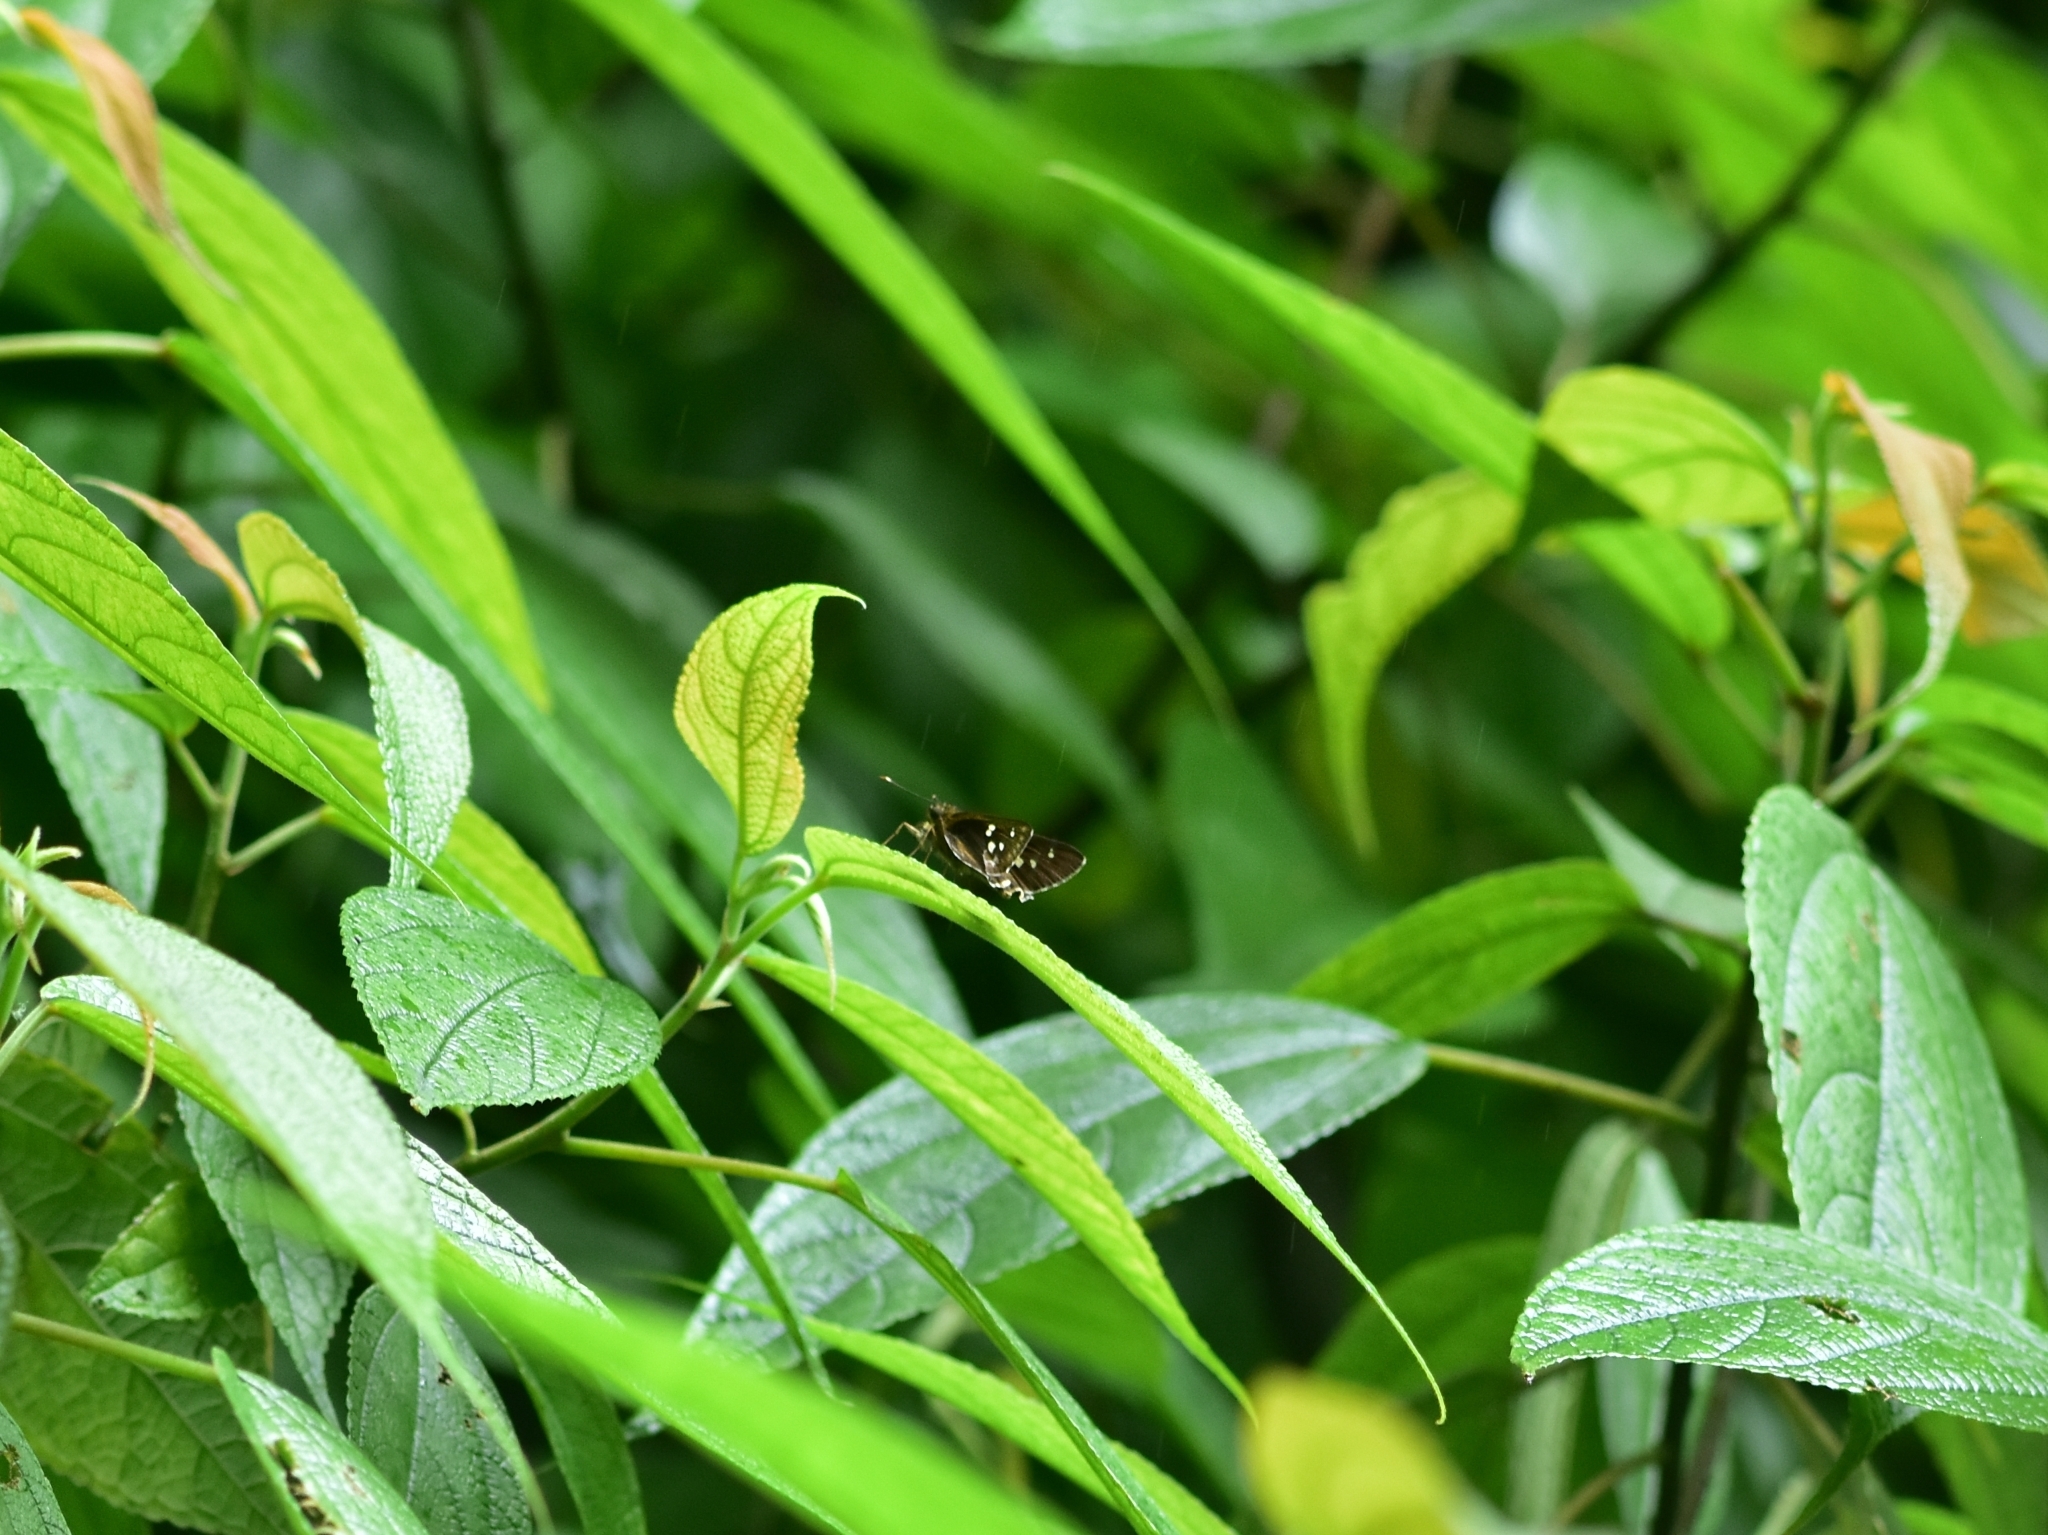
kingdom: Animalia
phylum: Arthropoda
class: Insecta
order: Lepidoptera
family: Hesperiidae
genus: Halpe
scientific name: Halpe porus
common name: Moore's ace
